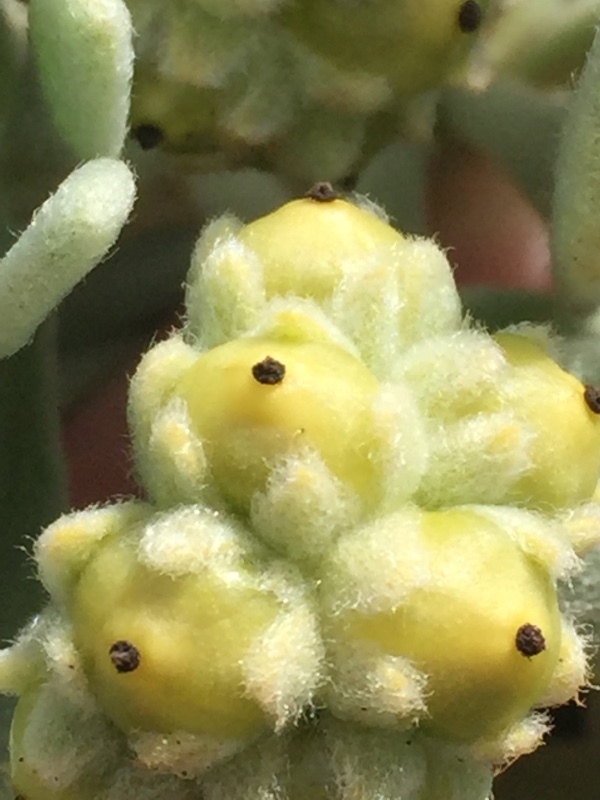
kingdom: Plantae
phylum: Tracheophyta
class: Magnoliopsida
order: Boraginales
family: Heliotropiaceae
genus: Tournefortia
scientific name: Tournefortia gnaphalodes
